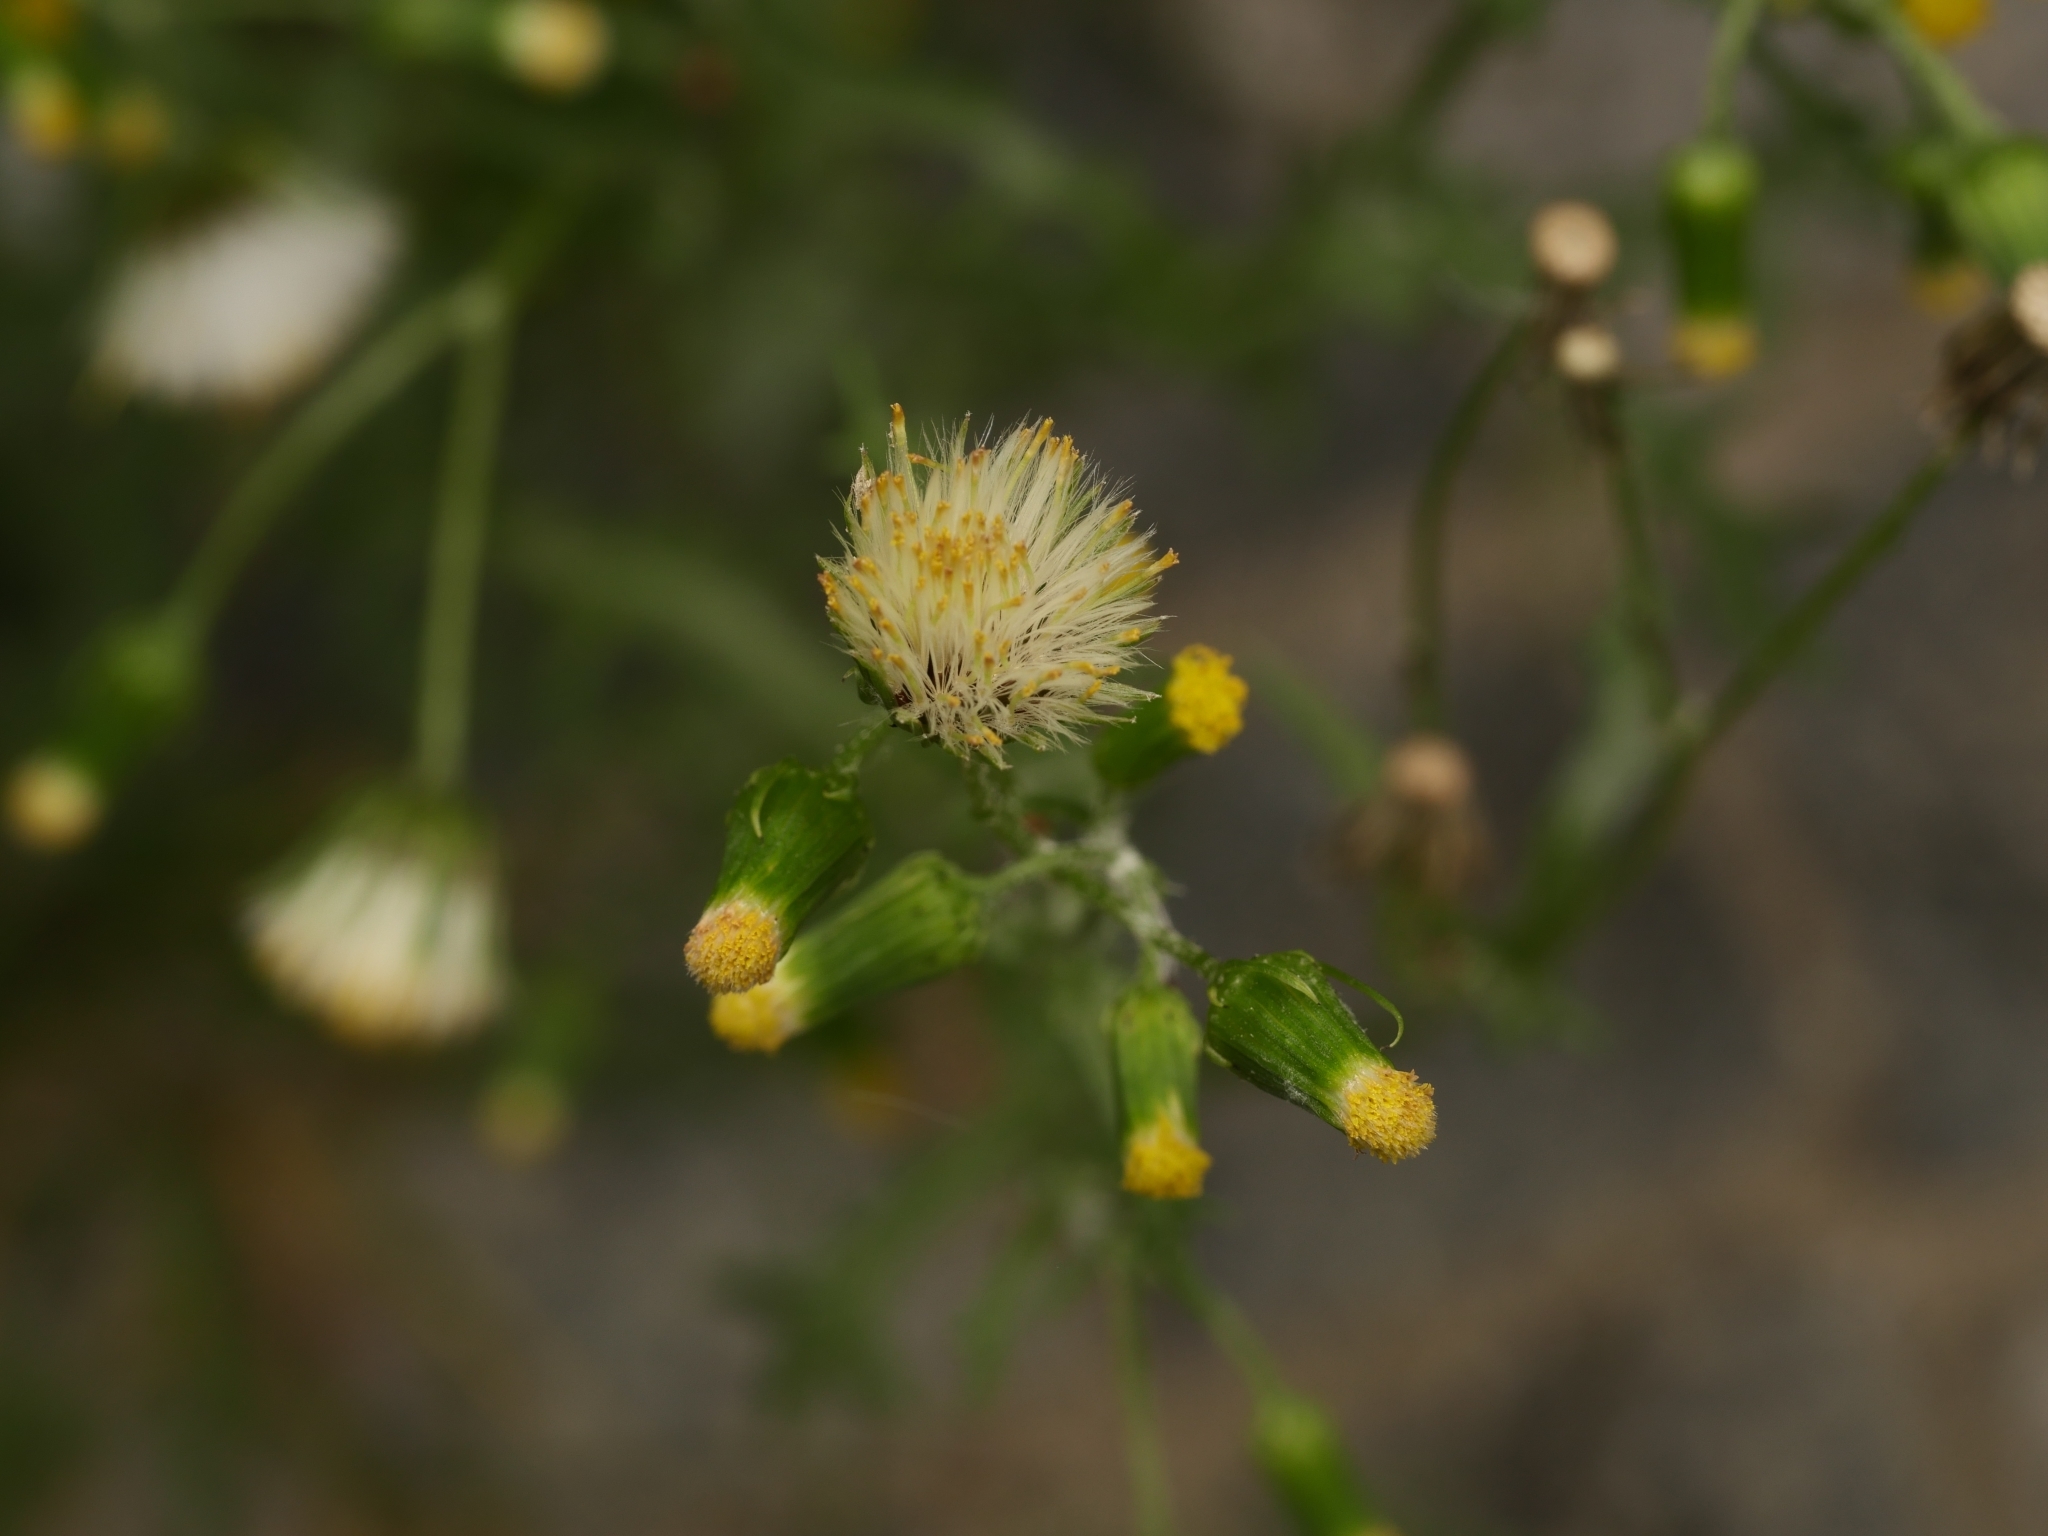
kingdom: Plantae
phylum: Tracheophyta
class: Magnoliopsida
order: Asterales
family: Asteraceae
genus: Senecio
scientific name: Senecio vulgaris
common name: Old-man-in-the-spring
